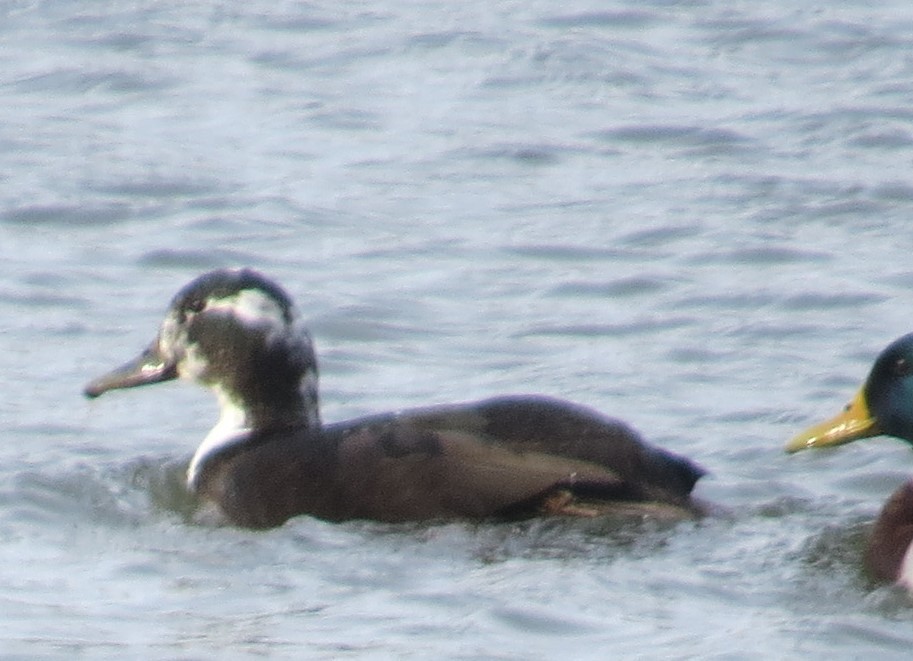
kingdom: Animalia
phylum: Chordata
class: Aves
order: Anseriformes
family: Anatidae
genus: Anas
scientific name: Anas platyrhynchos
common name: Mallard
